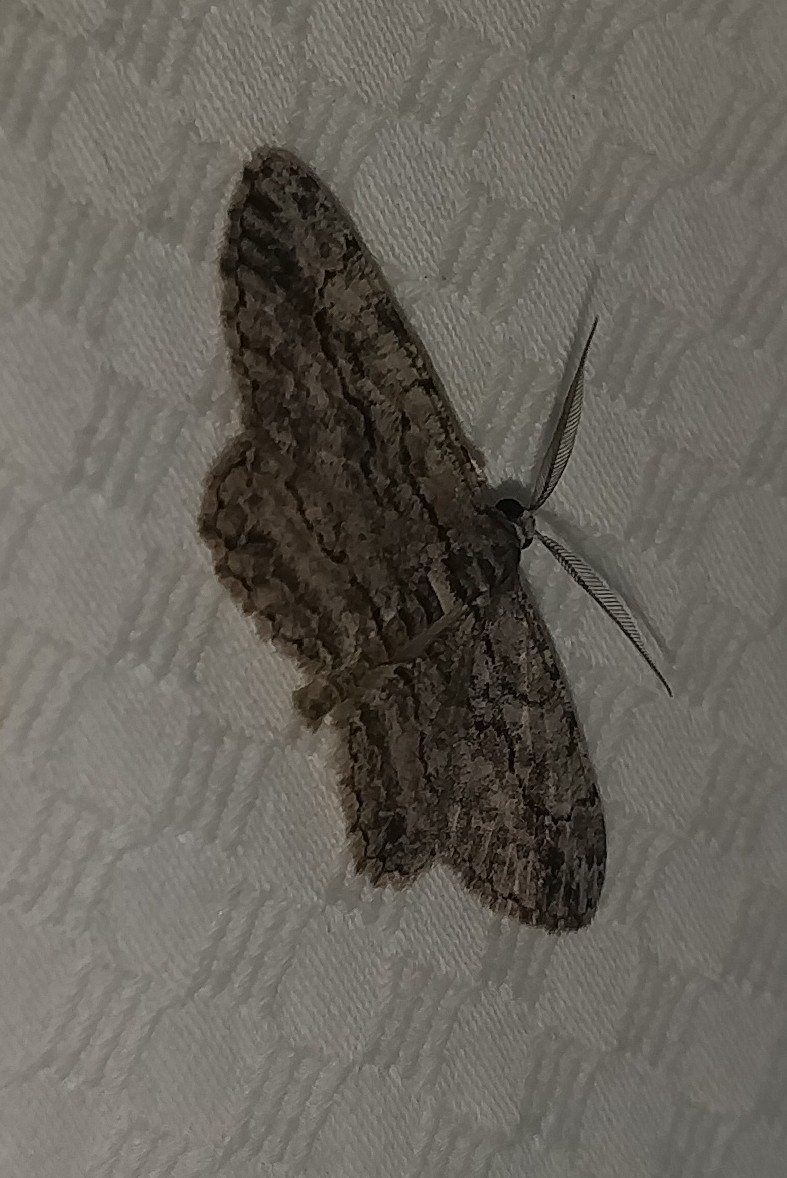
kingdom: Animalia
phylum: Arthropoda
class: Insecta
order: Lepidoptera
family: Geometridae
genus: Anavitrinella
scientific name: Anavitrinella pampinaria
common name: Common gray
